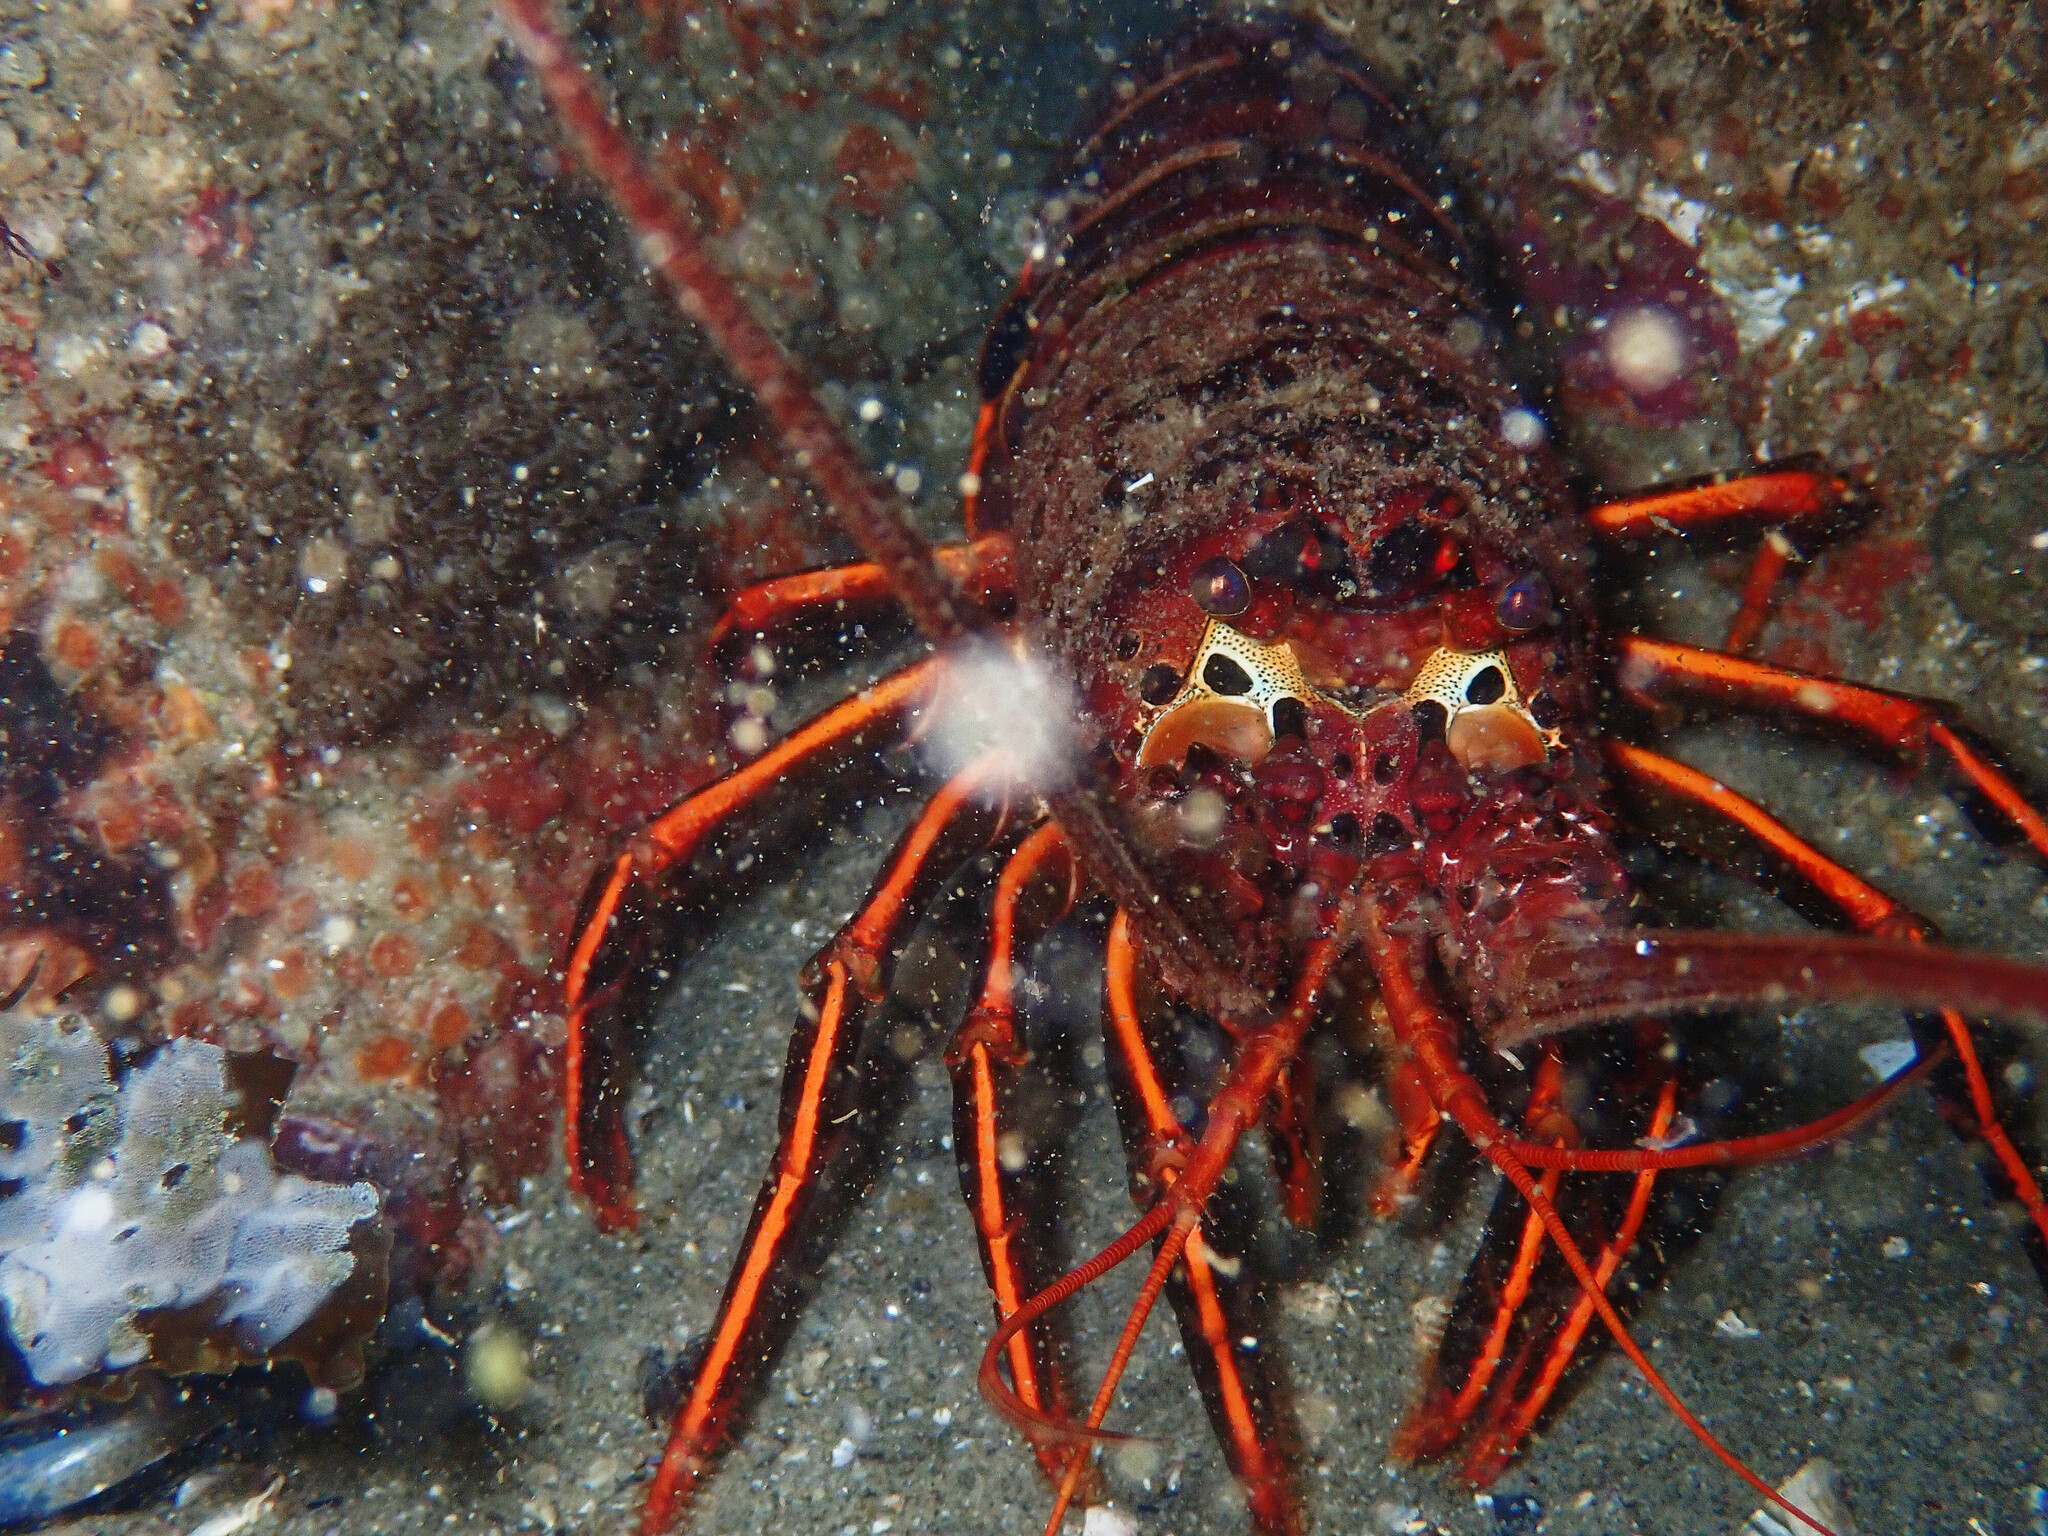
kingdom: Animalia
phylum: Arthropoda
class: Malacostraca
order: Decapoda
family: Palinuridae
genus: Panulirus
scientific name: Panulirus interruptus
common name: California spiny lobster
